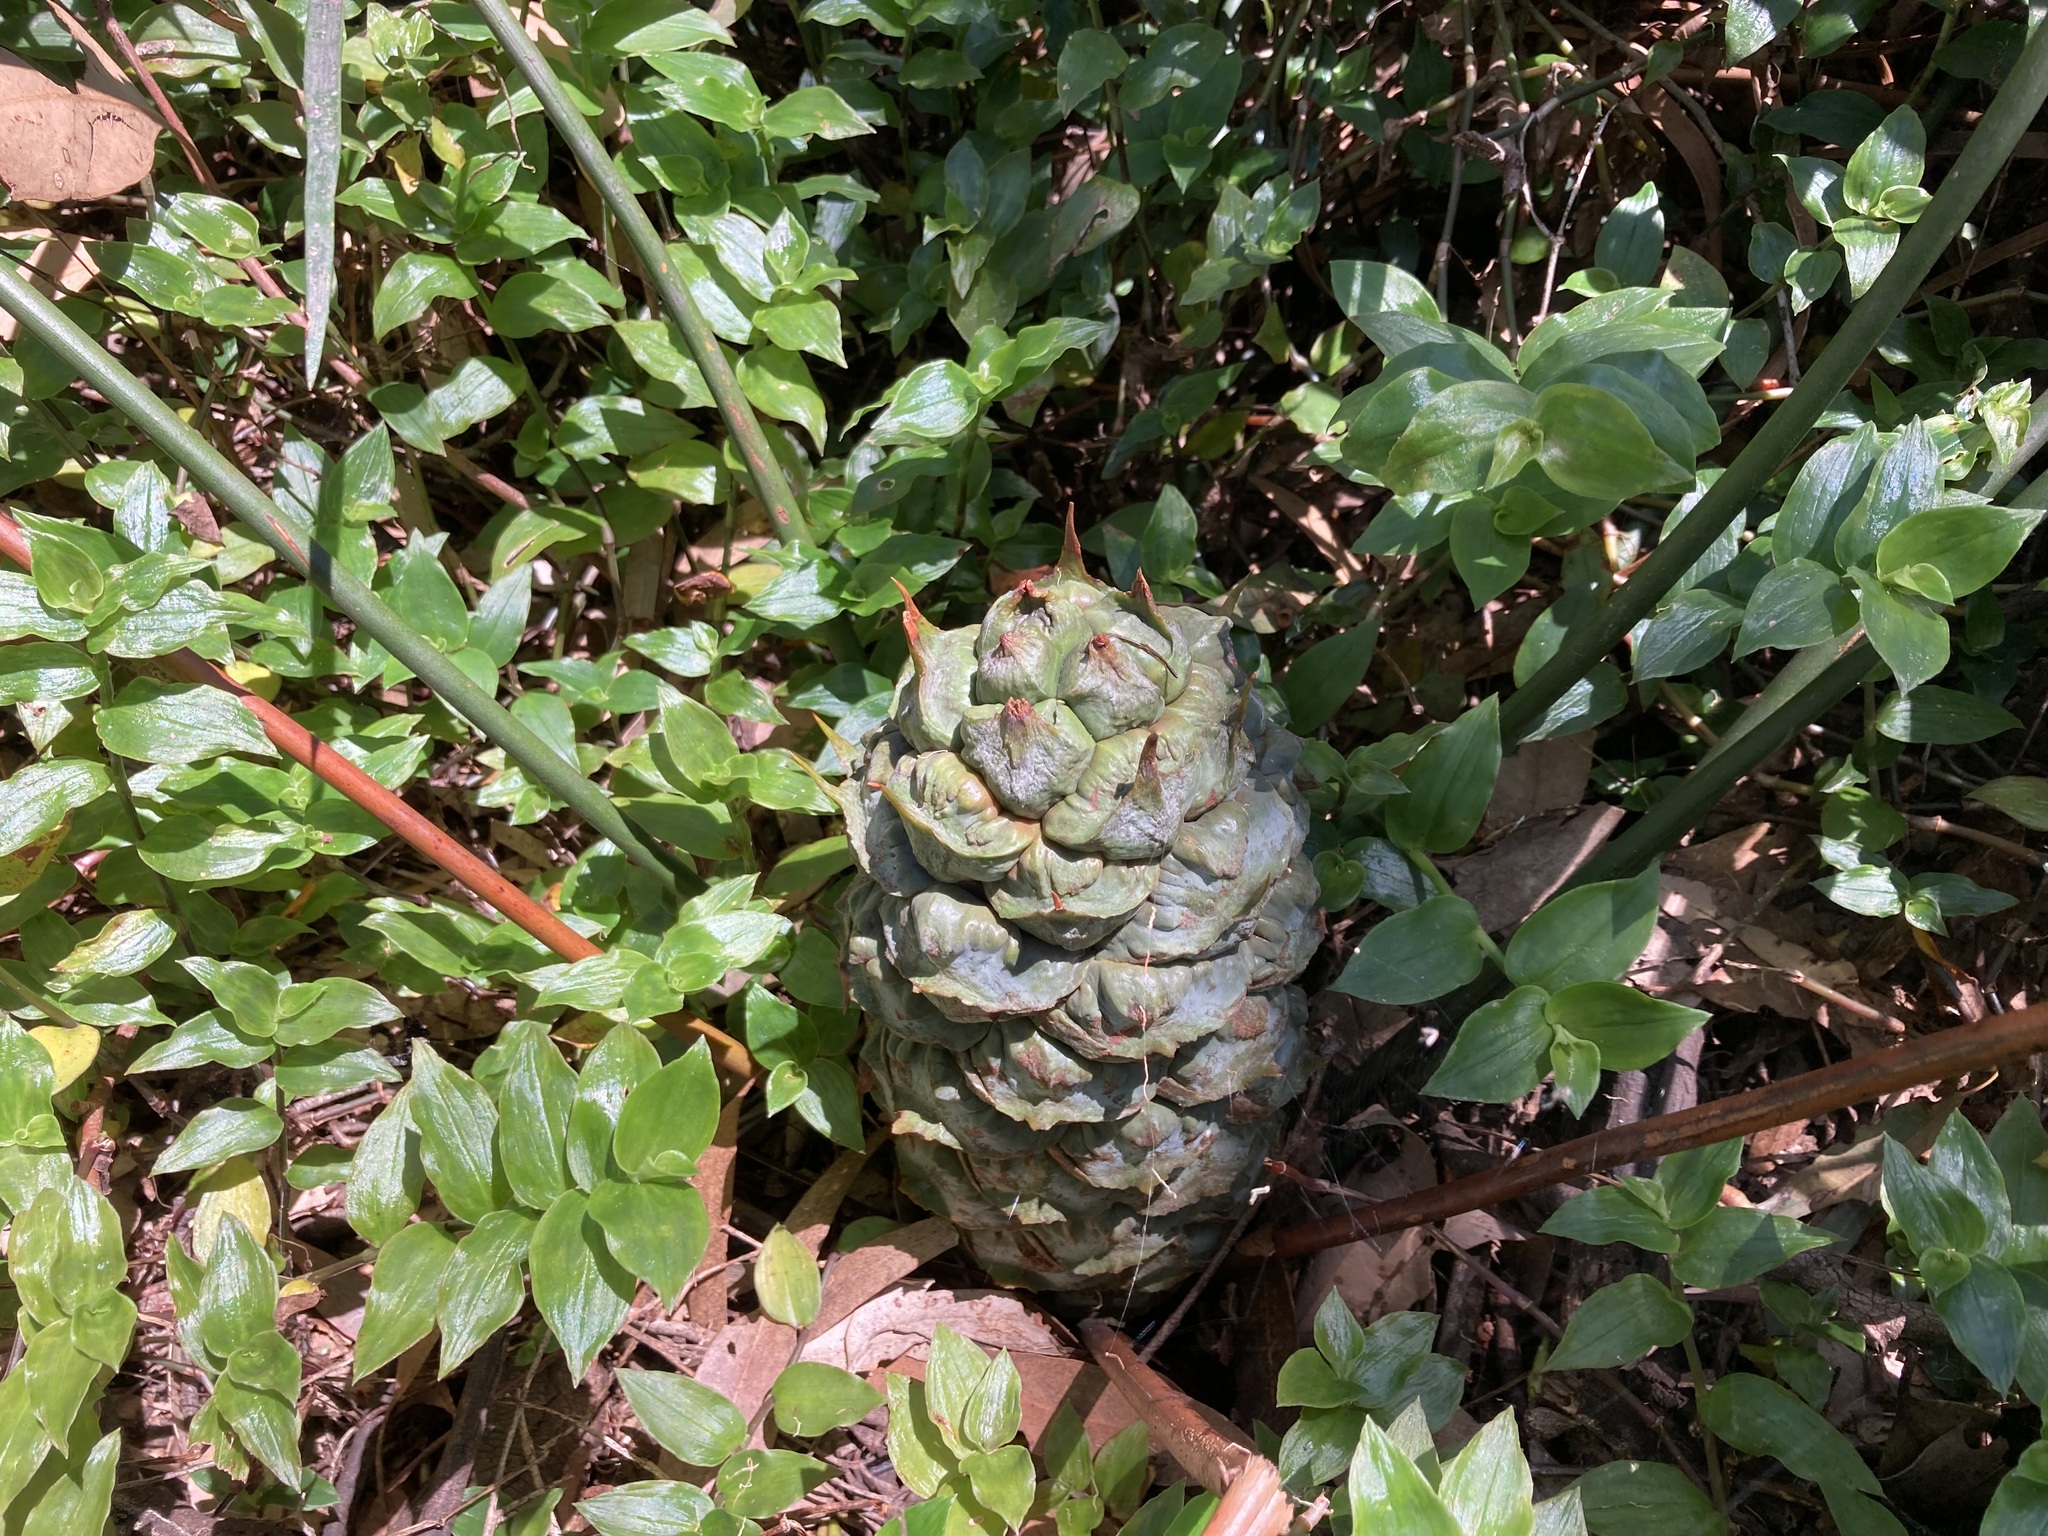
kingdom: Plantae
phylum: Tracheophyta
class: Cycadopsida
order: Cycadales
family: Zamiaceae
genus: Macrozamia
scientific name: Macrozamia spiralis
